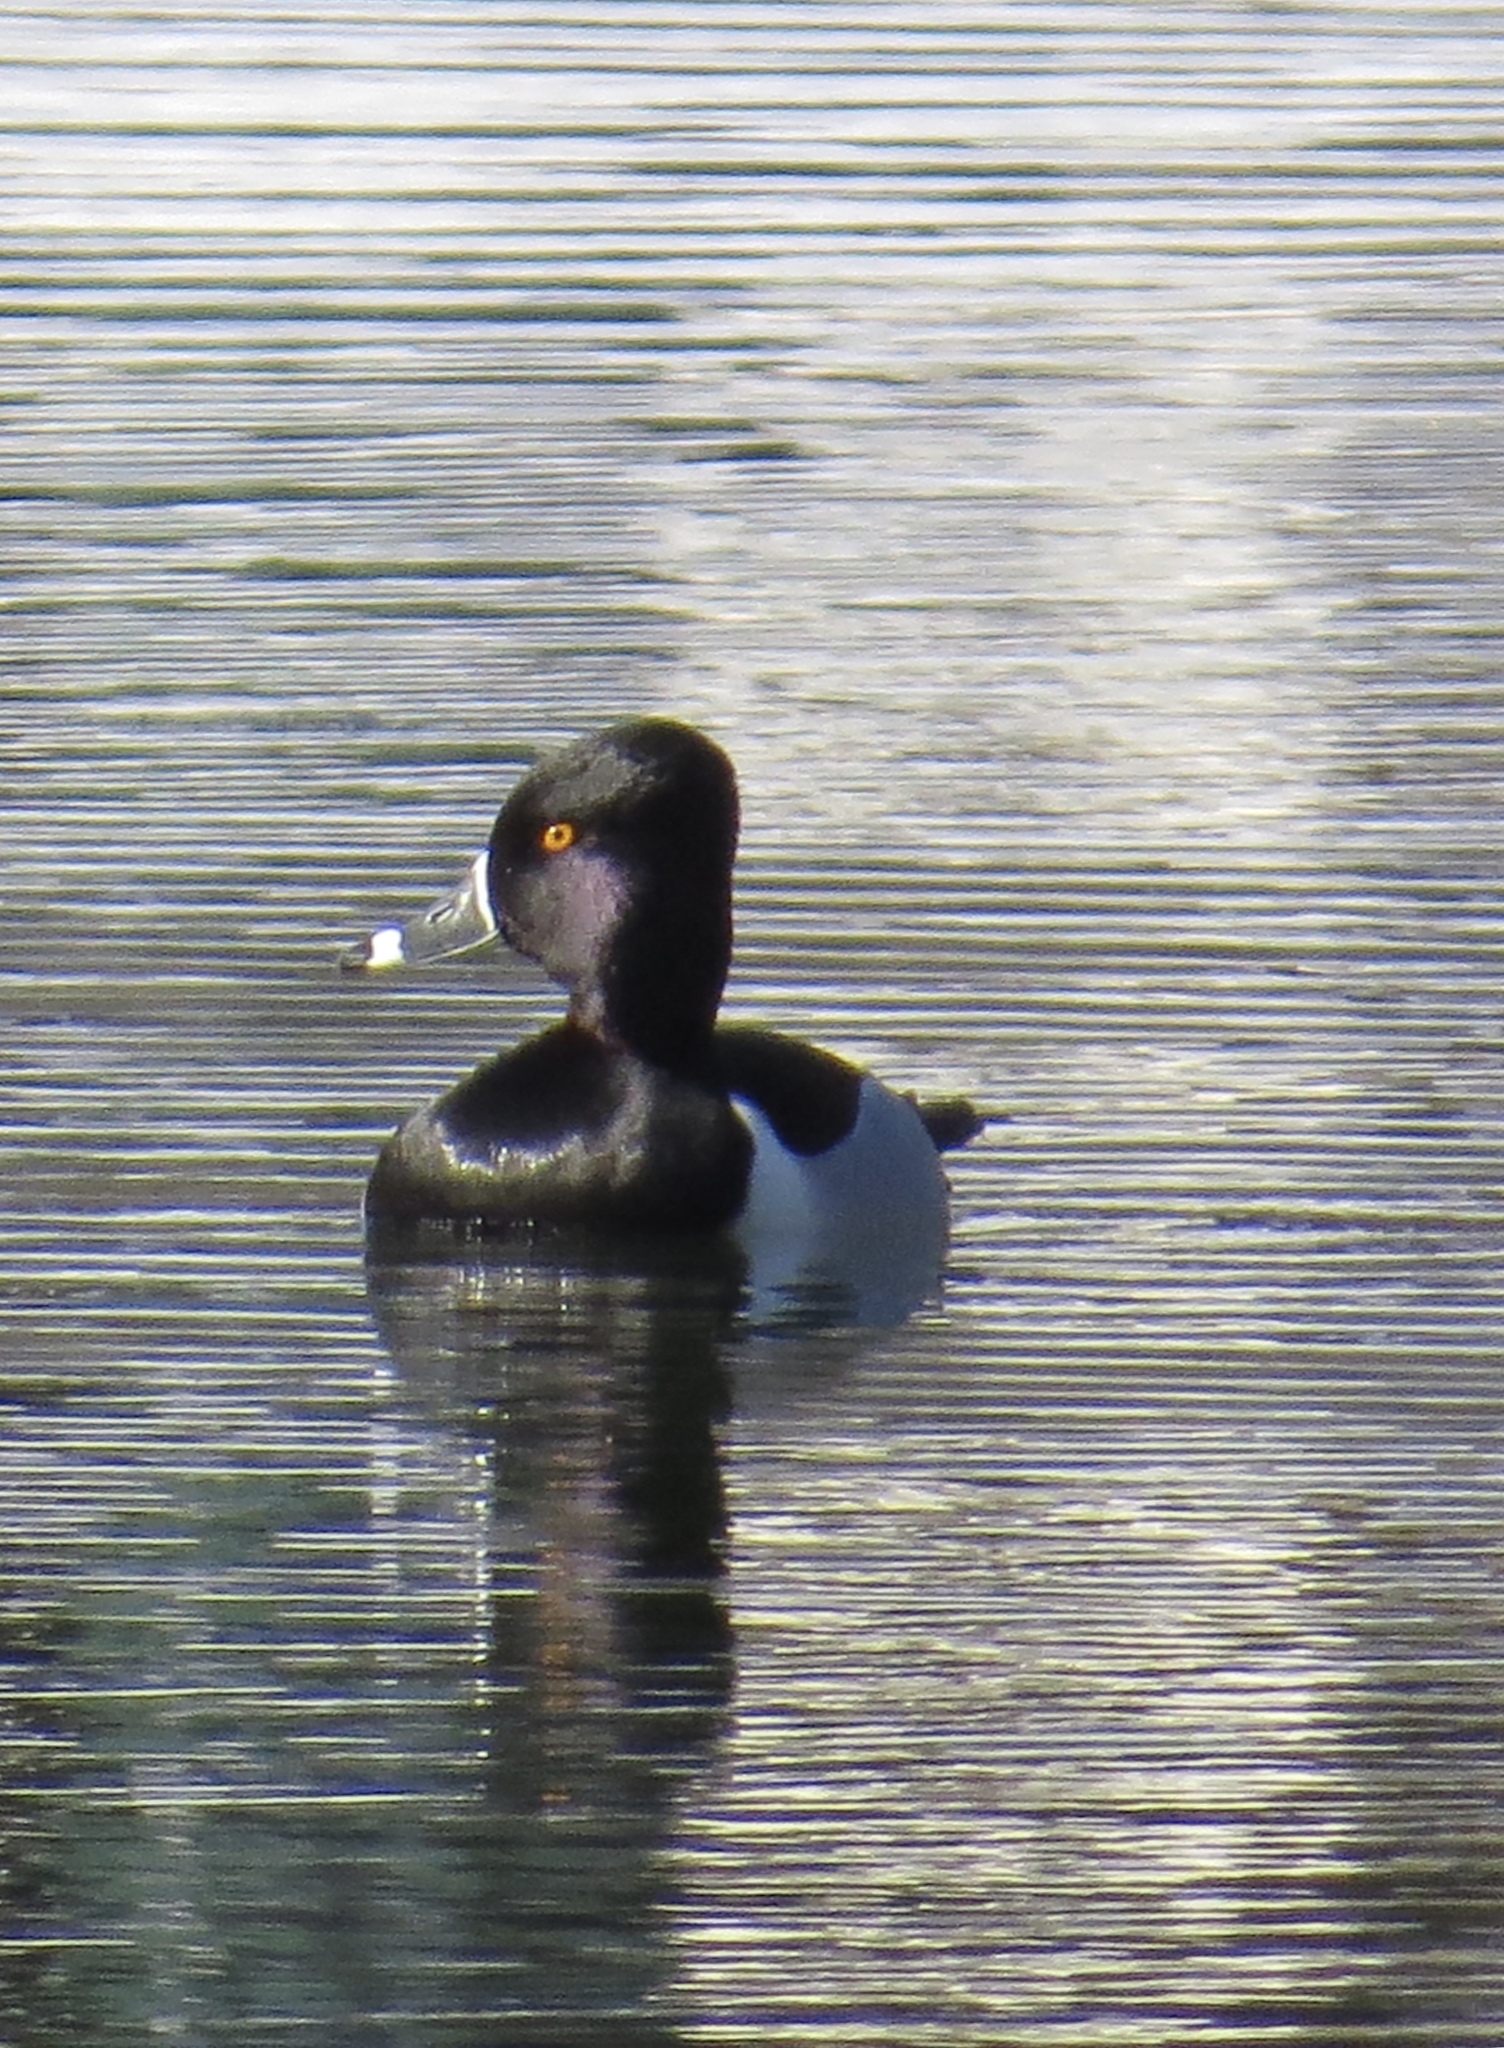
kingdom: Animalia
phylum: Chordata
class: Aves
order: Anseriformes
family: Anatidae
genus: Aythya
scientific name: Aythya collaris
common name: Ring-necked duck
